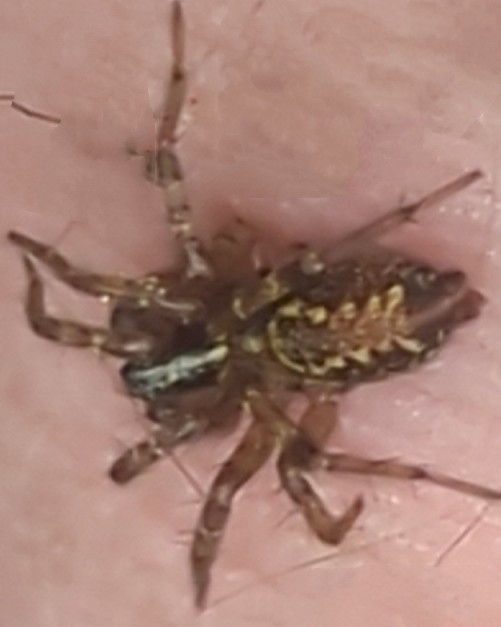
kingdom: Animalia
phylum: Arthropoda
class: Arachnida
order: Araneae
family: Agelenidae
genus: Textrix
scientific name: Textrix denticulata
